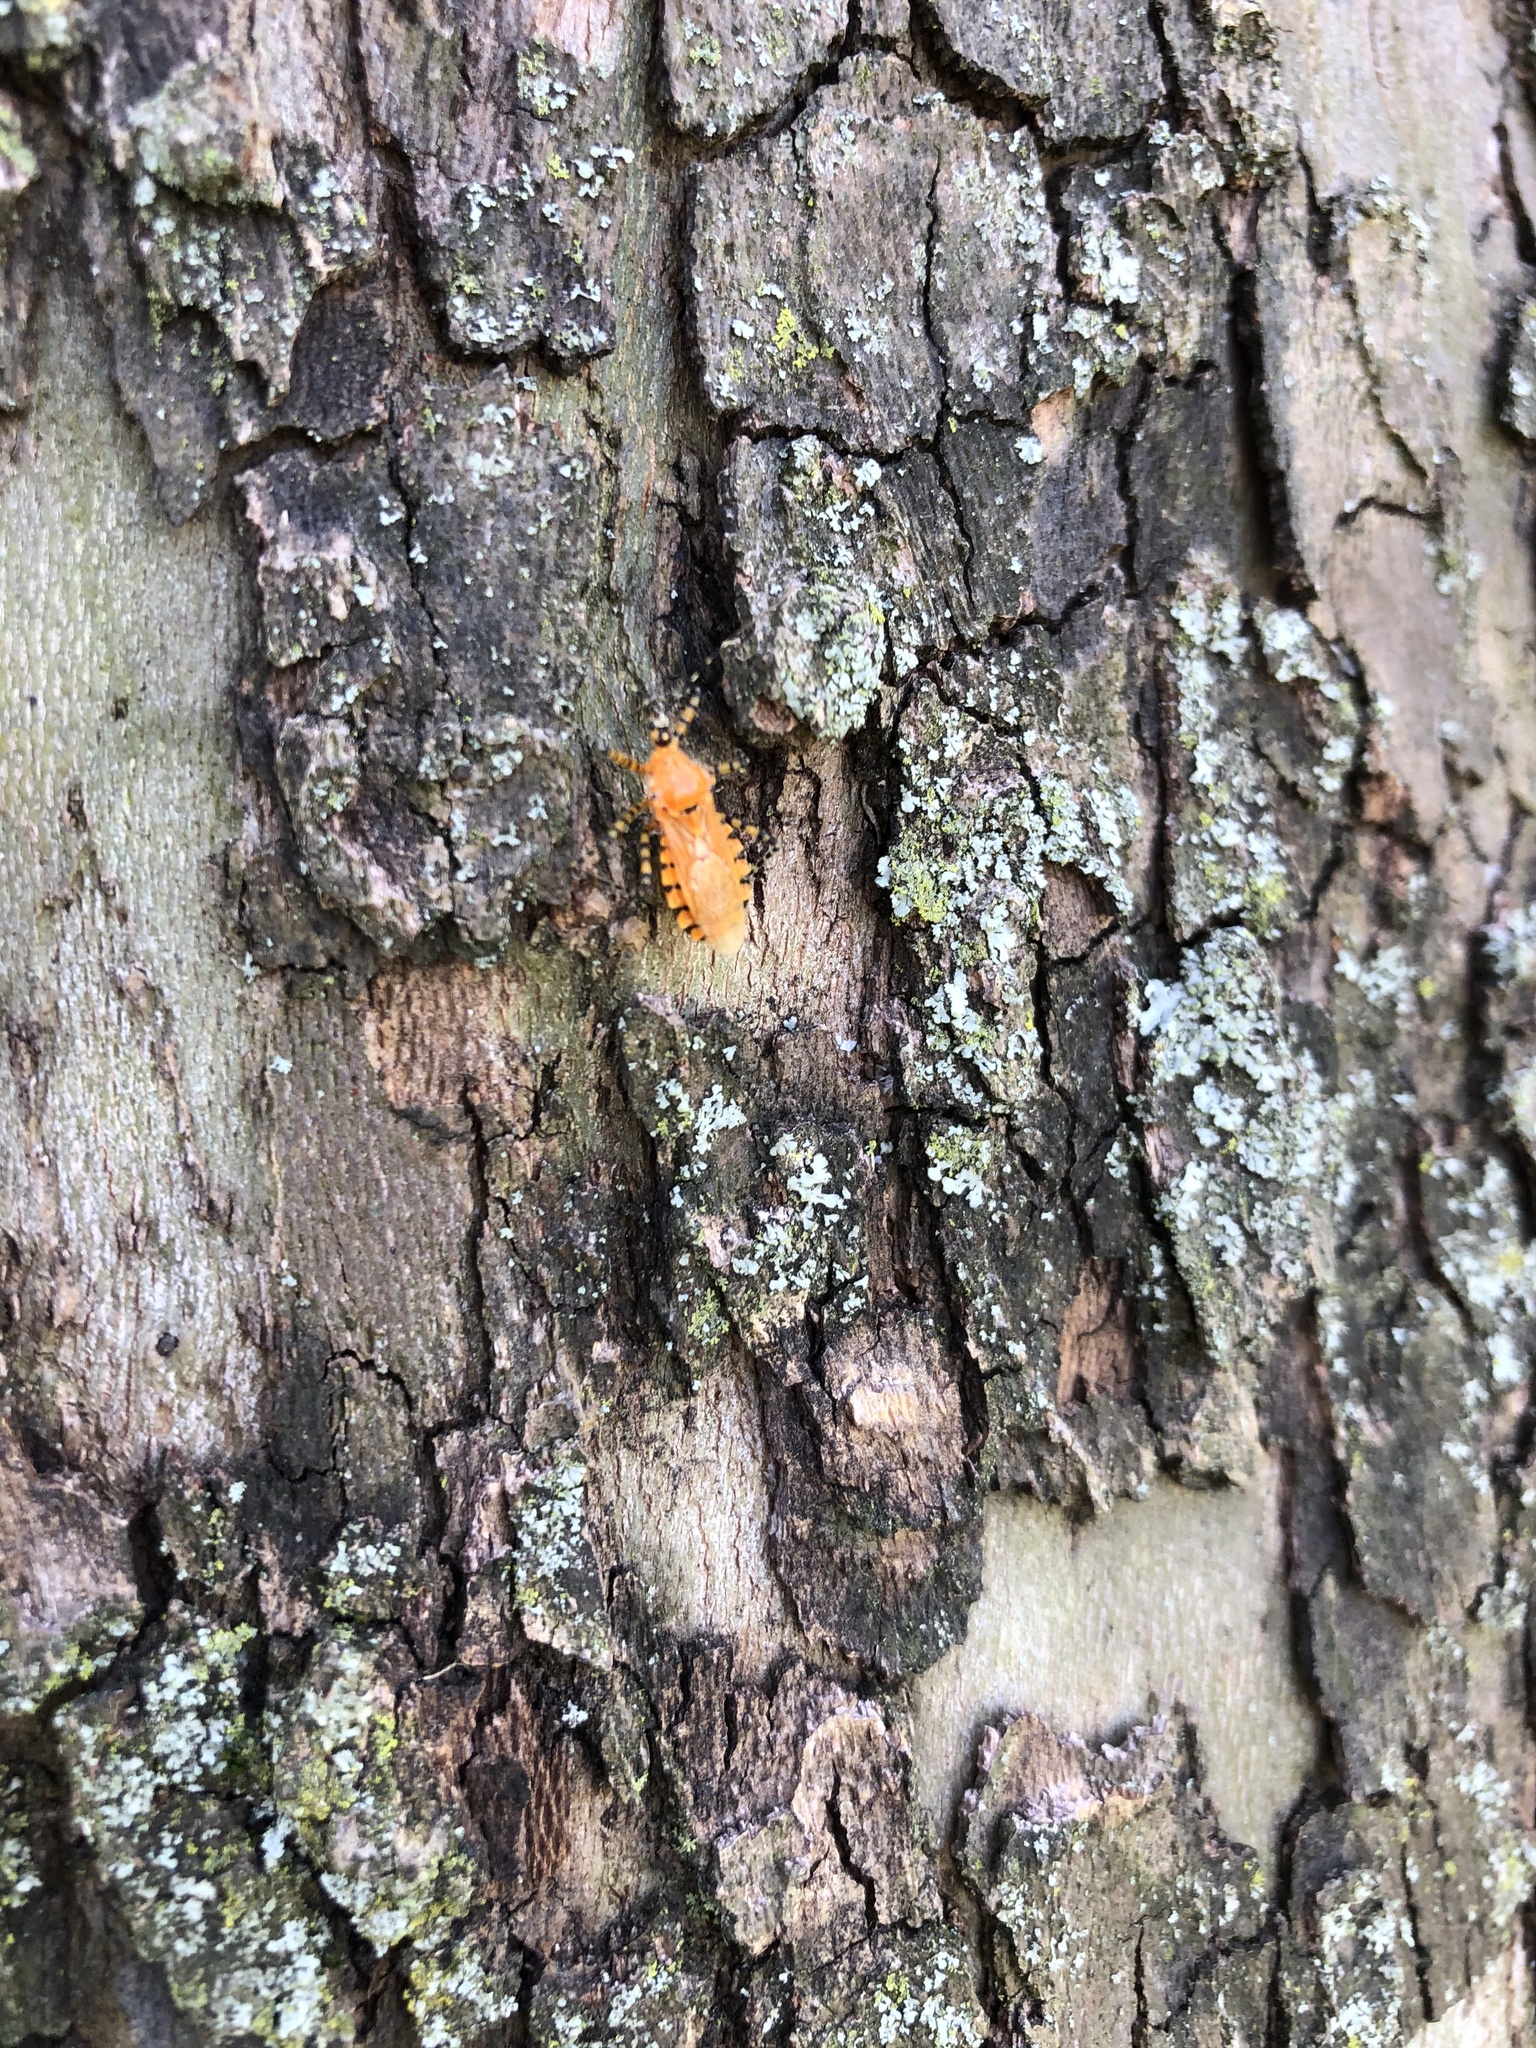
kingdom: Animalia
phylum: Arthropoda
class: Insecta
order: Hemiptera
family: Reduviidae
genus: Pselliopus
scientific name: Pselliopus barberi
